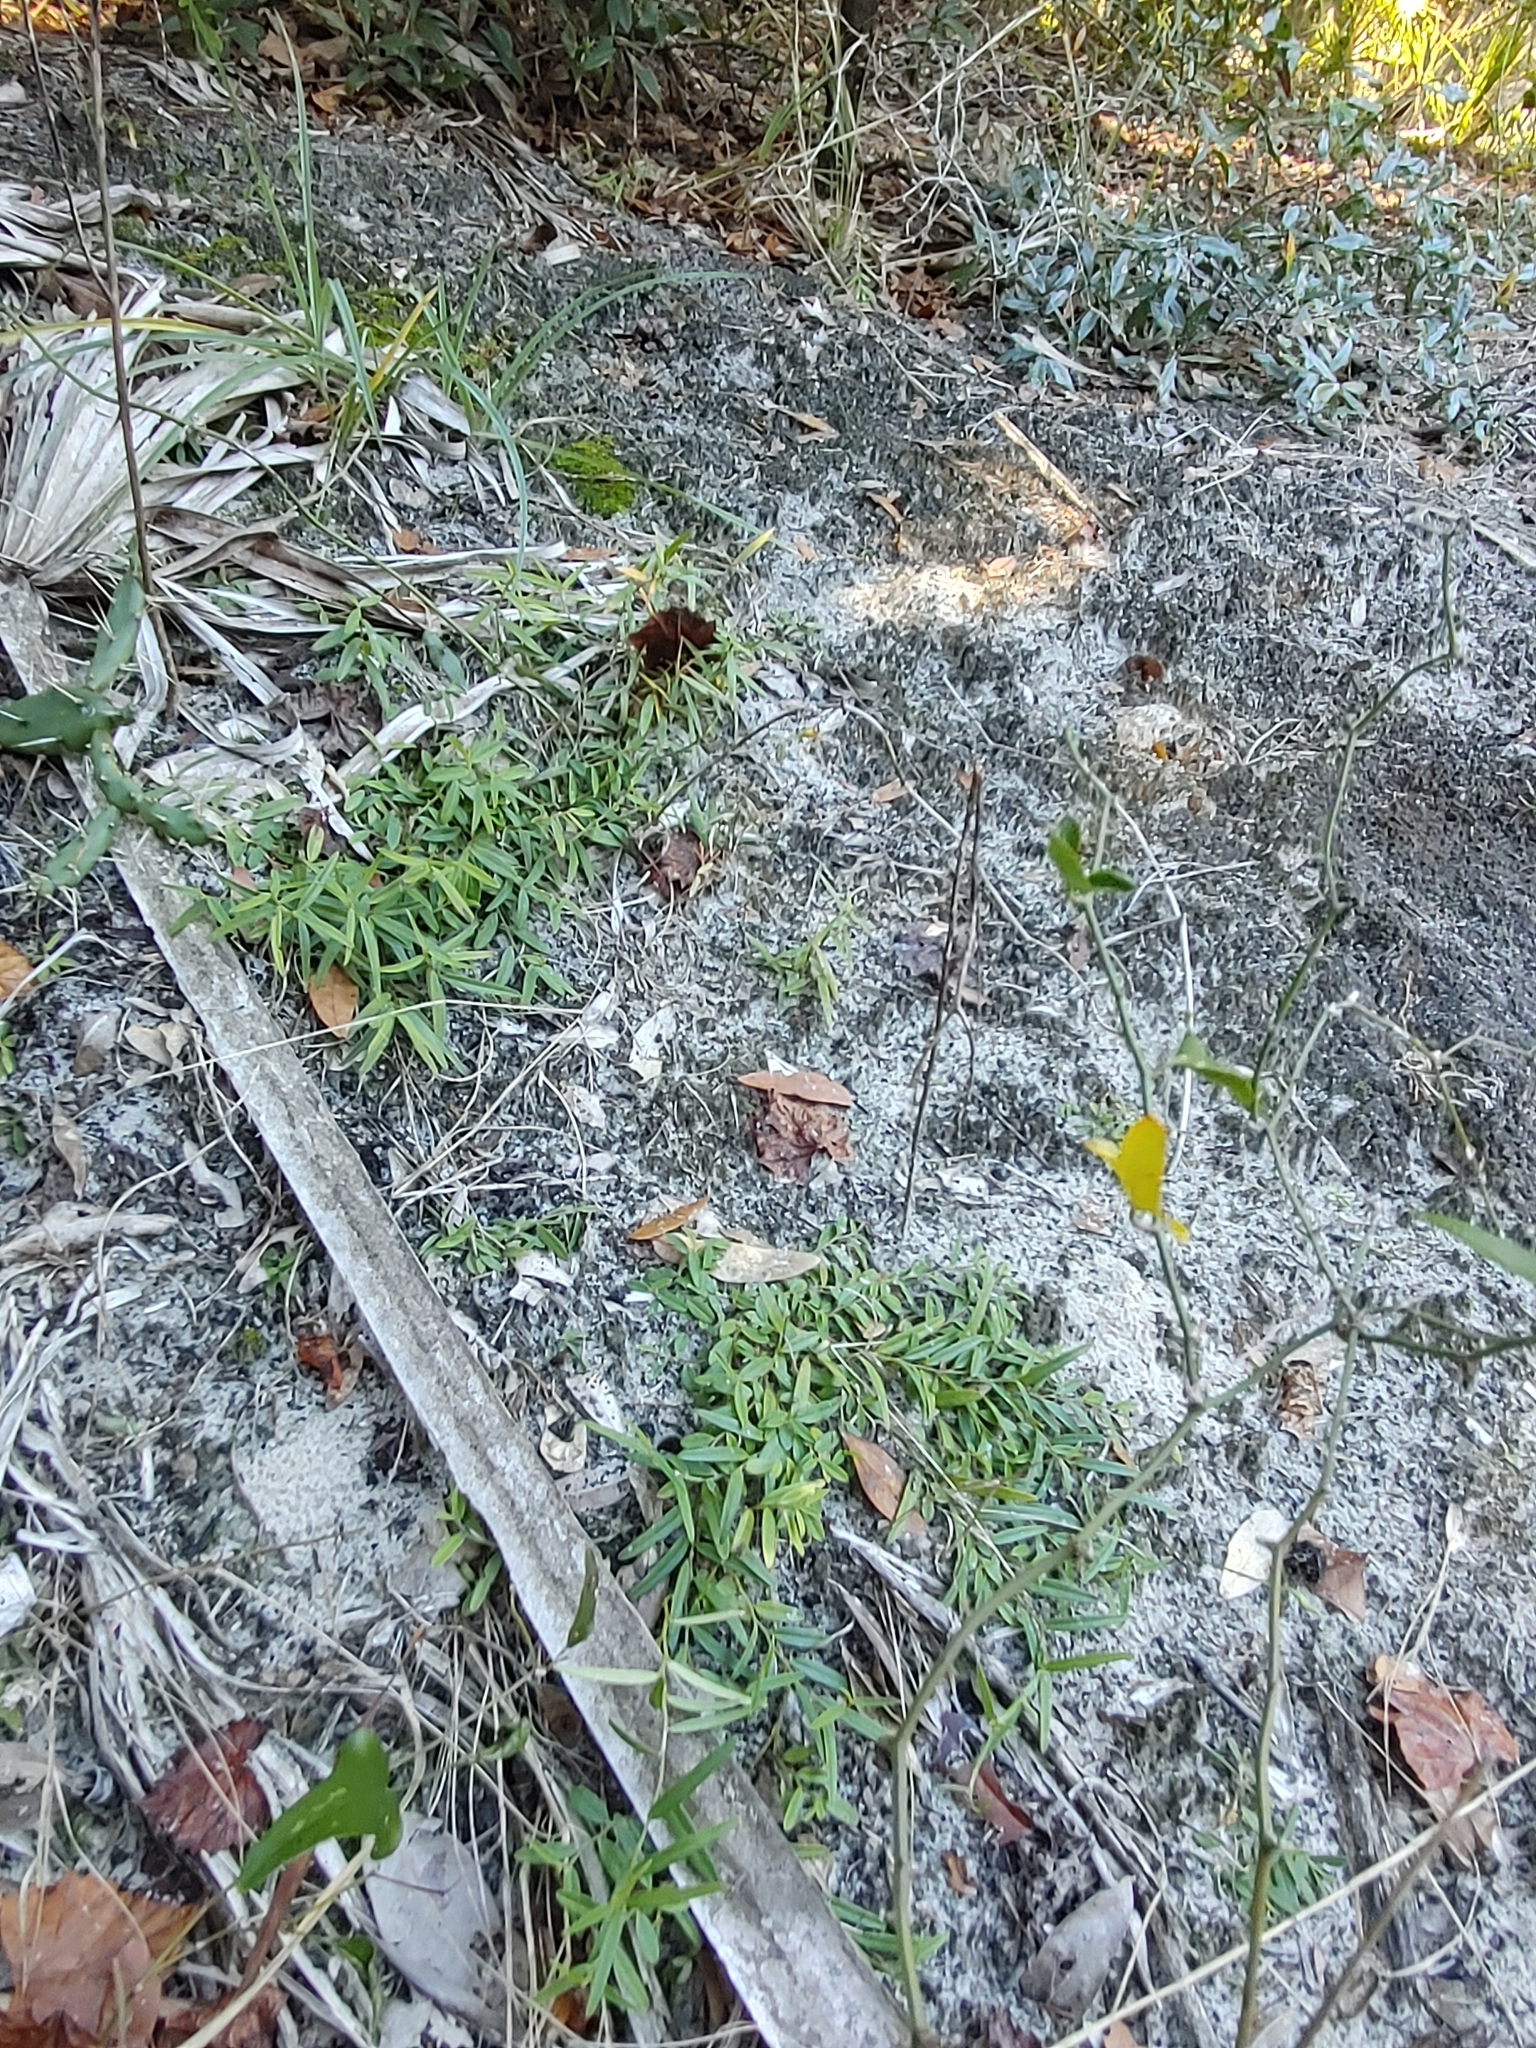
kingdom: Plantae
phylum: Tracheophyta
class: Magnoliopsida
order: Fabales
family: Fabaceae
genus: Crotalaria
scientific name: Crotalaria rotundifolia
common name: Prostrate rattlebox
